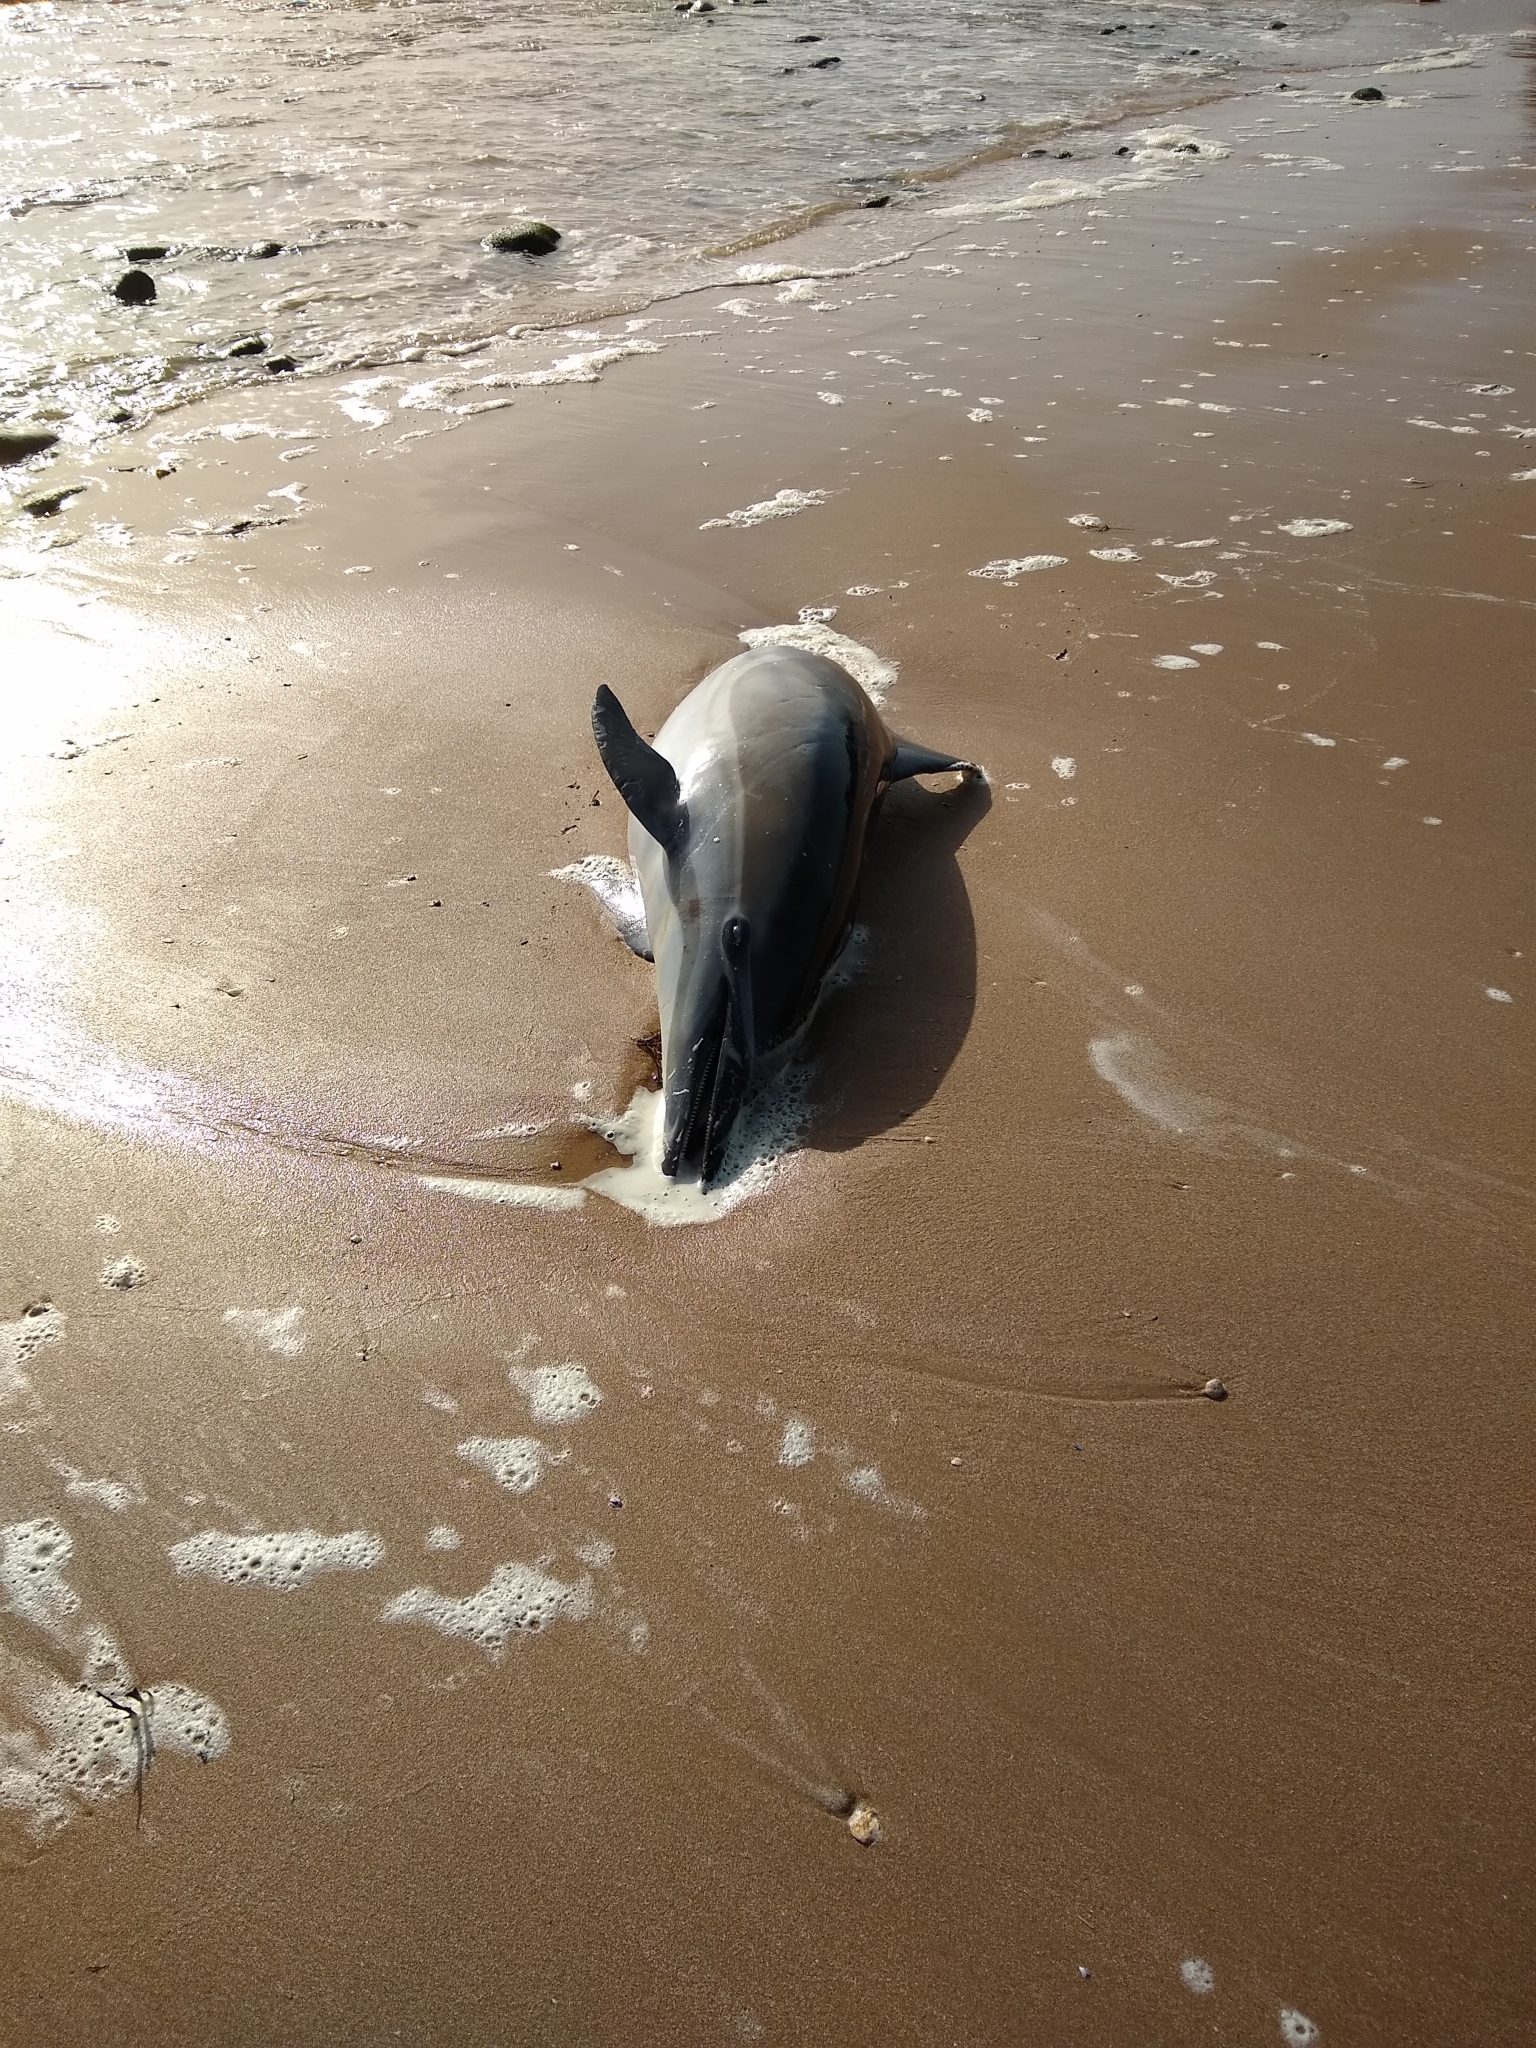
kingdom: Animalia
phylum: Chordata
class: Mammalia
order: Cetacea
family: Delphinidae
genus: Delphinus
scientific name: Delphinus delphis
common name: Common dolphin
